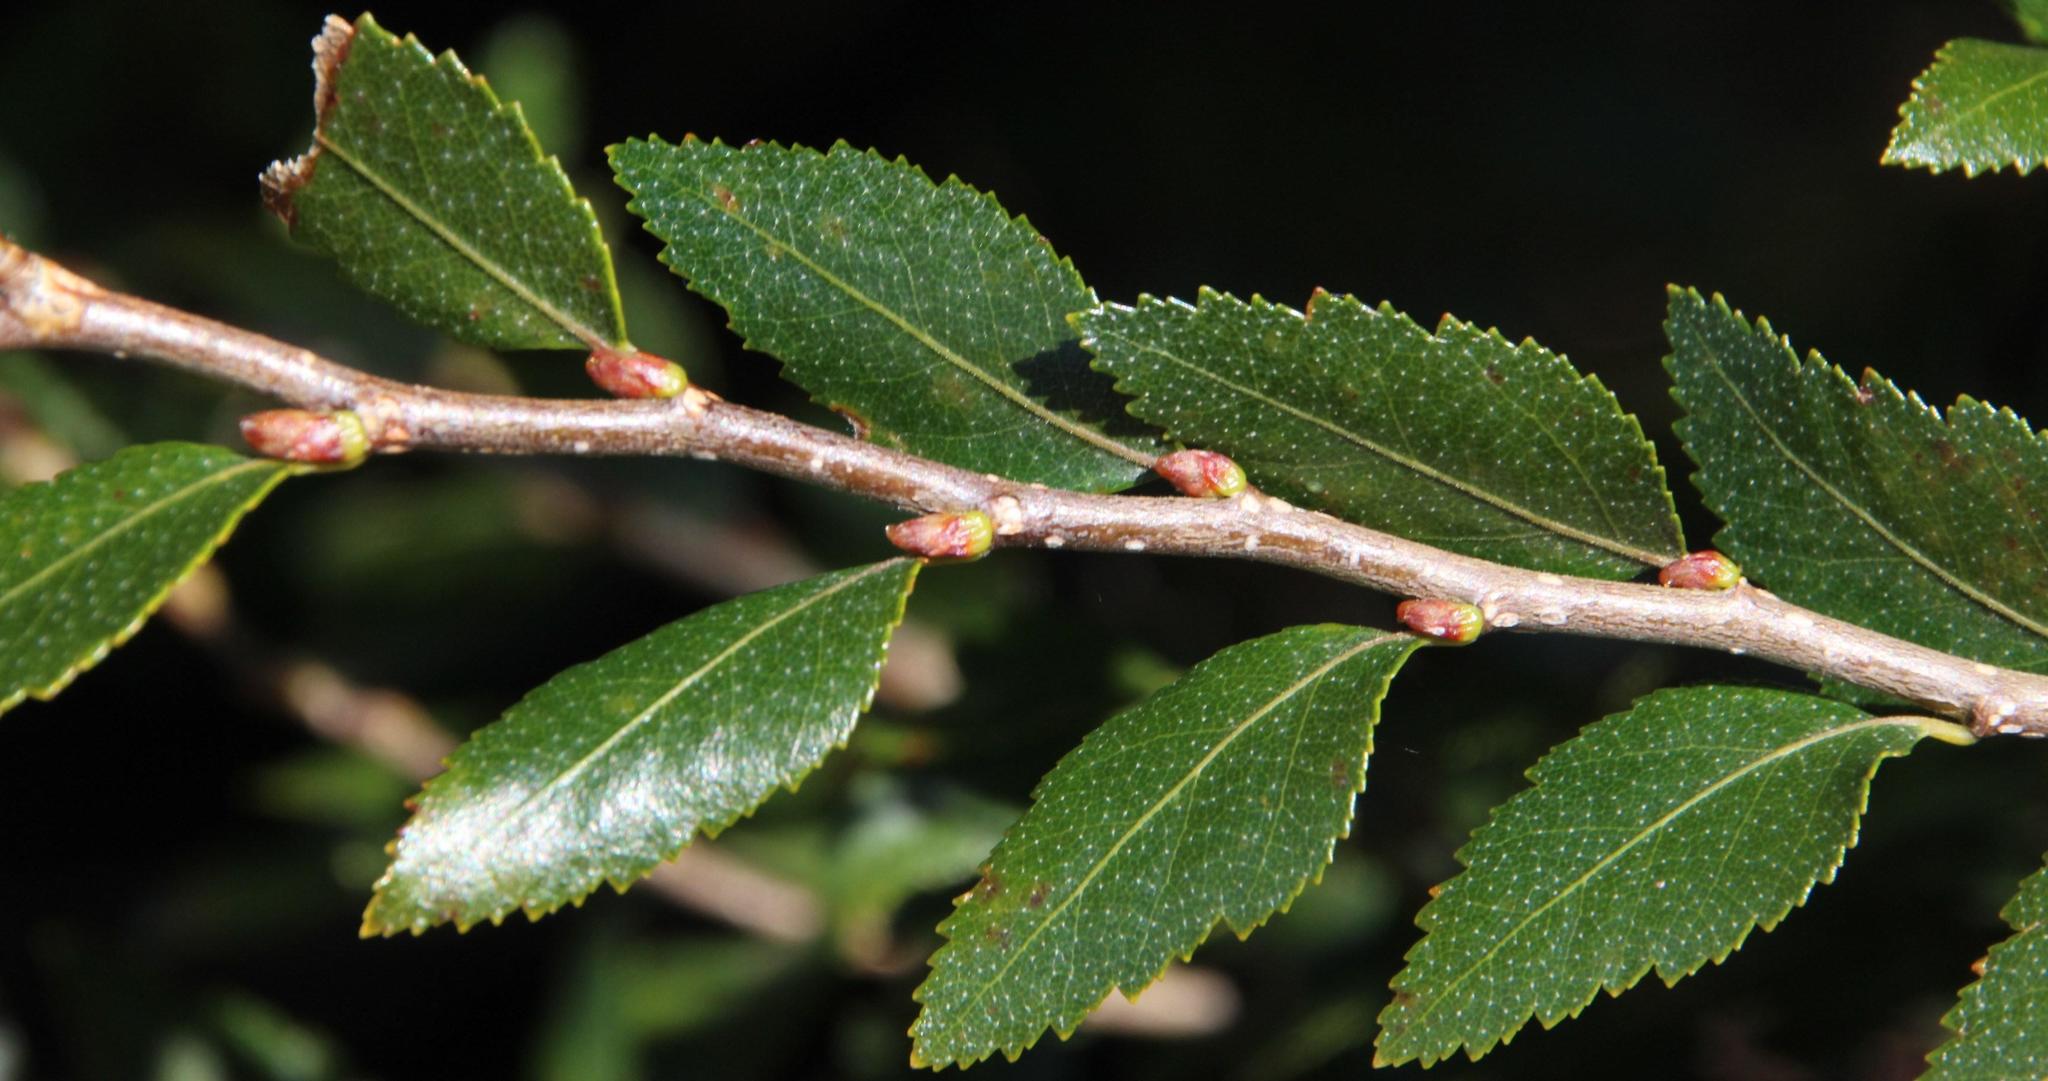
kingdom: Plantae
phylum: Tracheophyta
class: Magnoliopsida
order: Fagales
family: Nothofagaceae
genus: Nothofagus
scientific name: Nothofagus dombeyi
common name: Coigue
